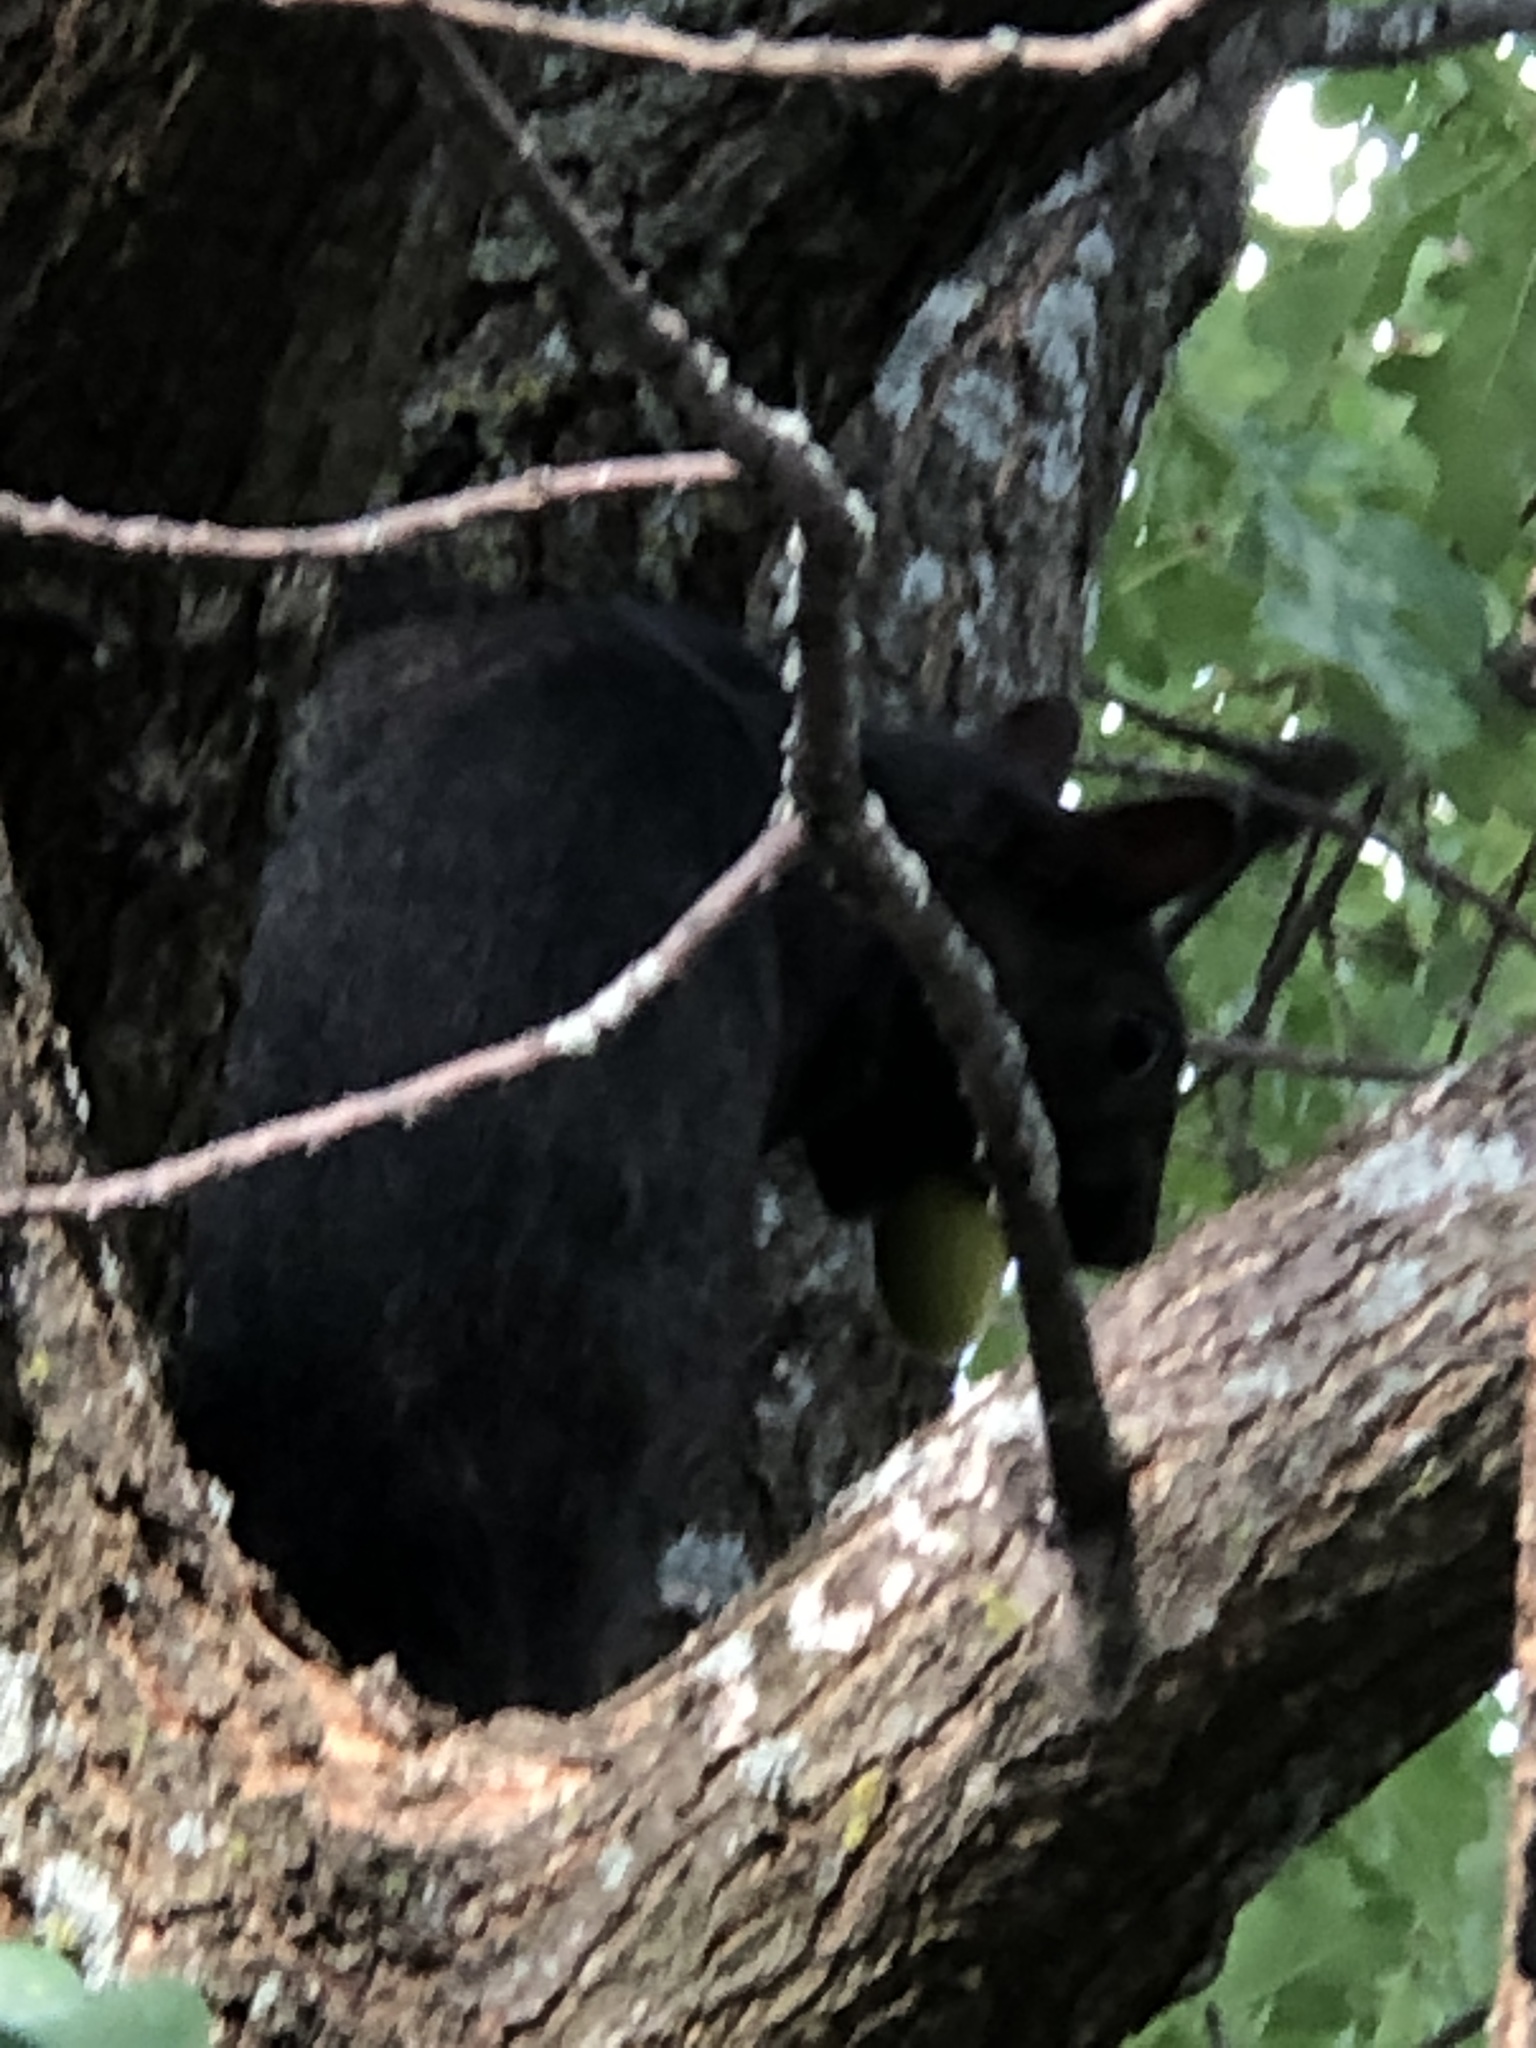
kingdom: Animalia
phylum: Chordata
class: Mammalia
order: Rodentia
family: Sciuridae
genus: Sciurus
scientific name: Sciurus carolinensis
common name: Eastern gray squirrel
